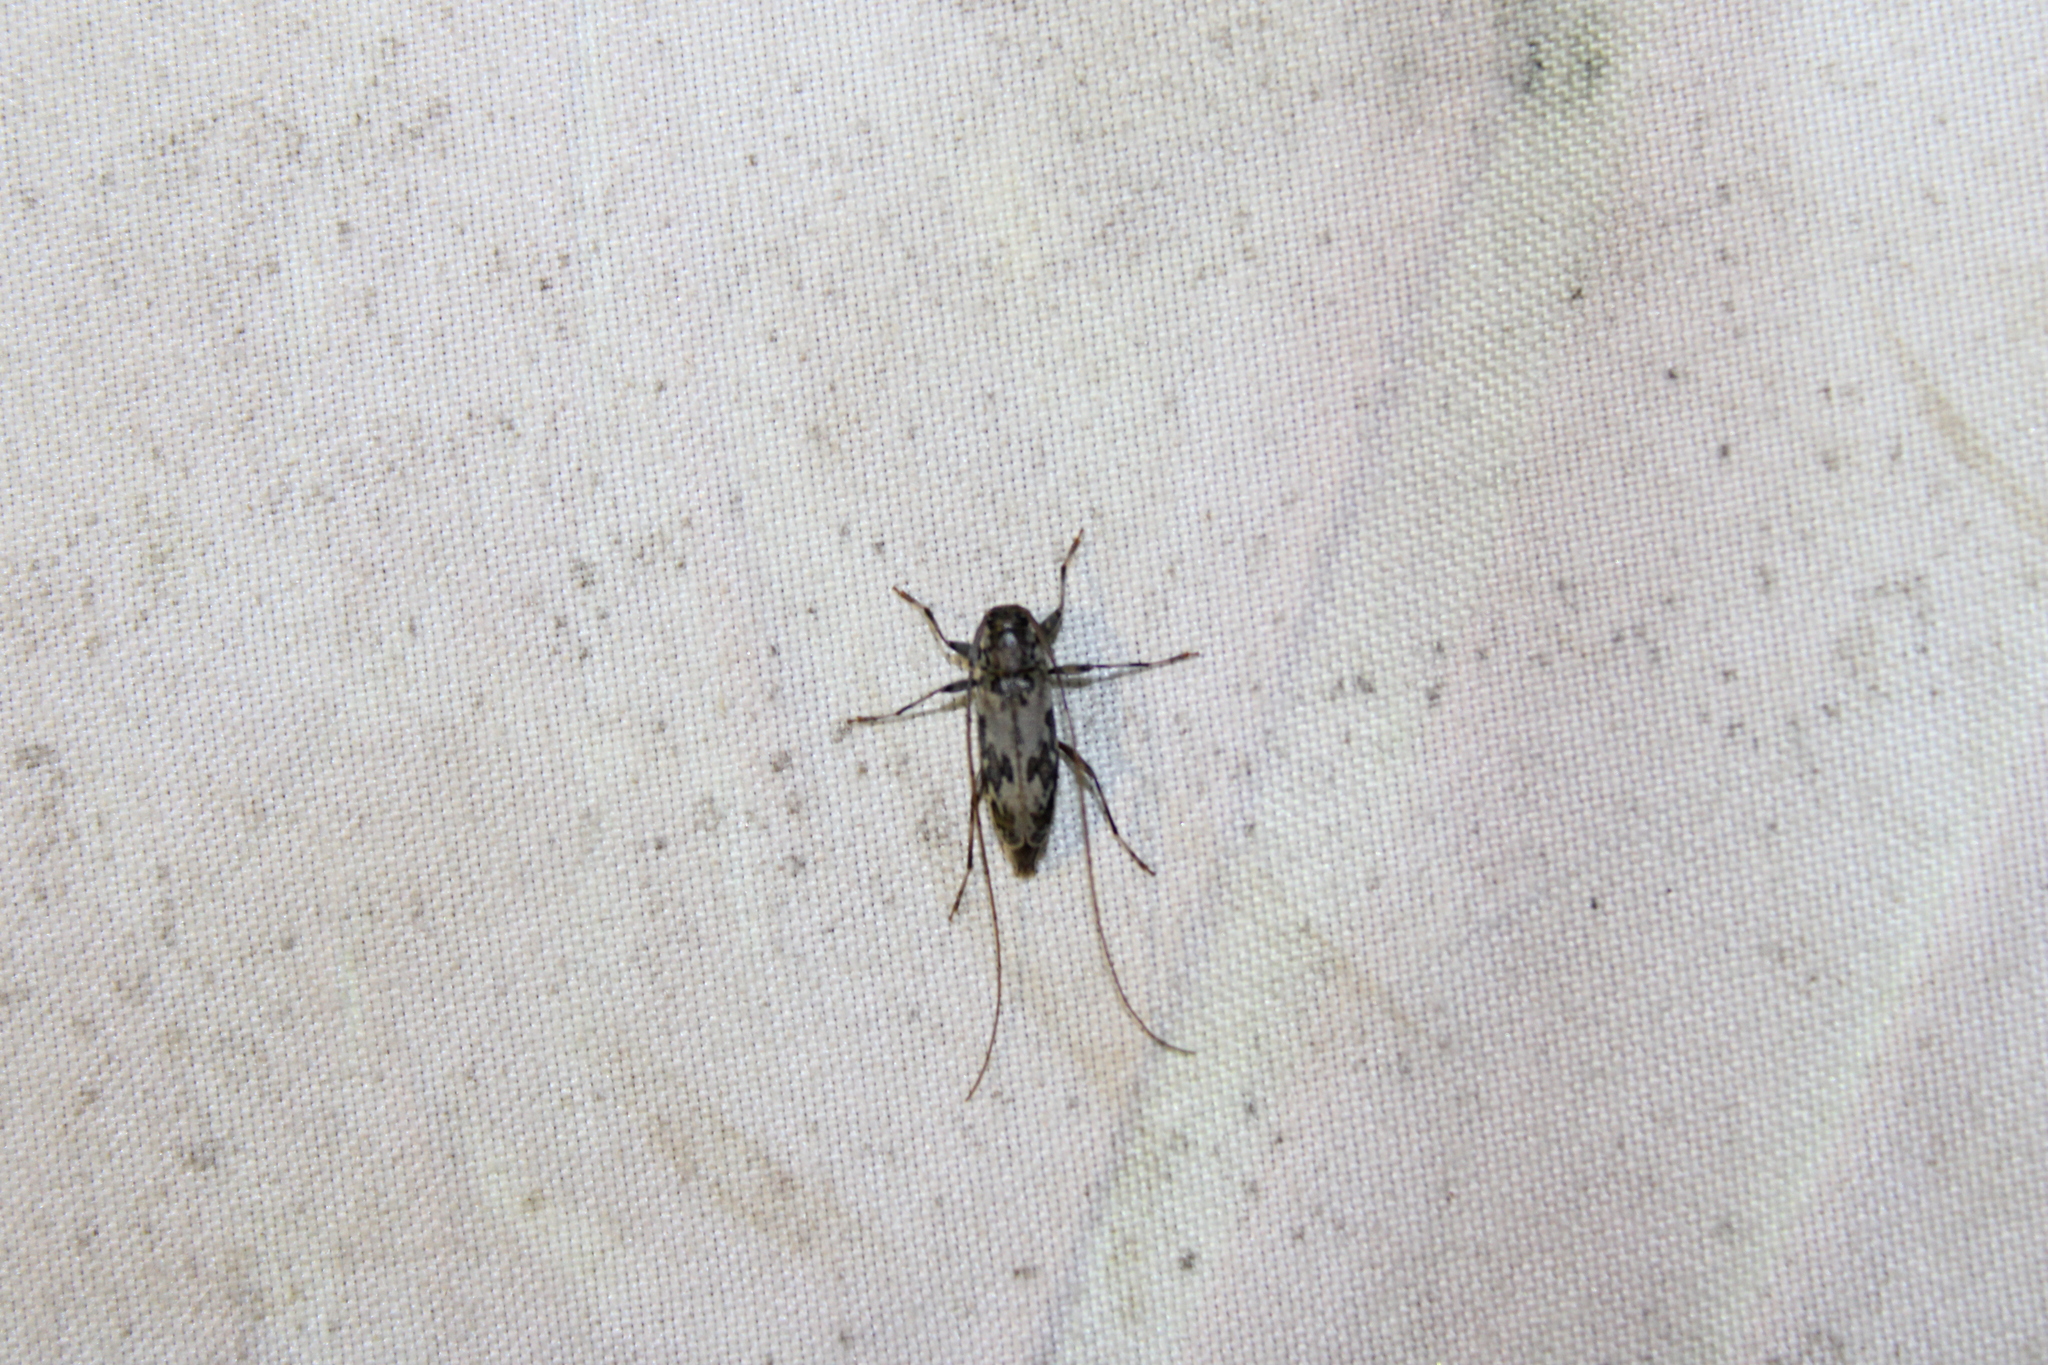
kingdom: Animalia
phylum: Arthropoda
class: Insecta
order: Coleoptera
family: Cerambycidae
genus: Lepturges
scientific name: Lepturges angulatus
